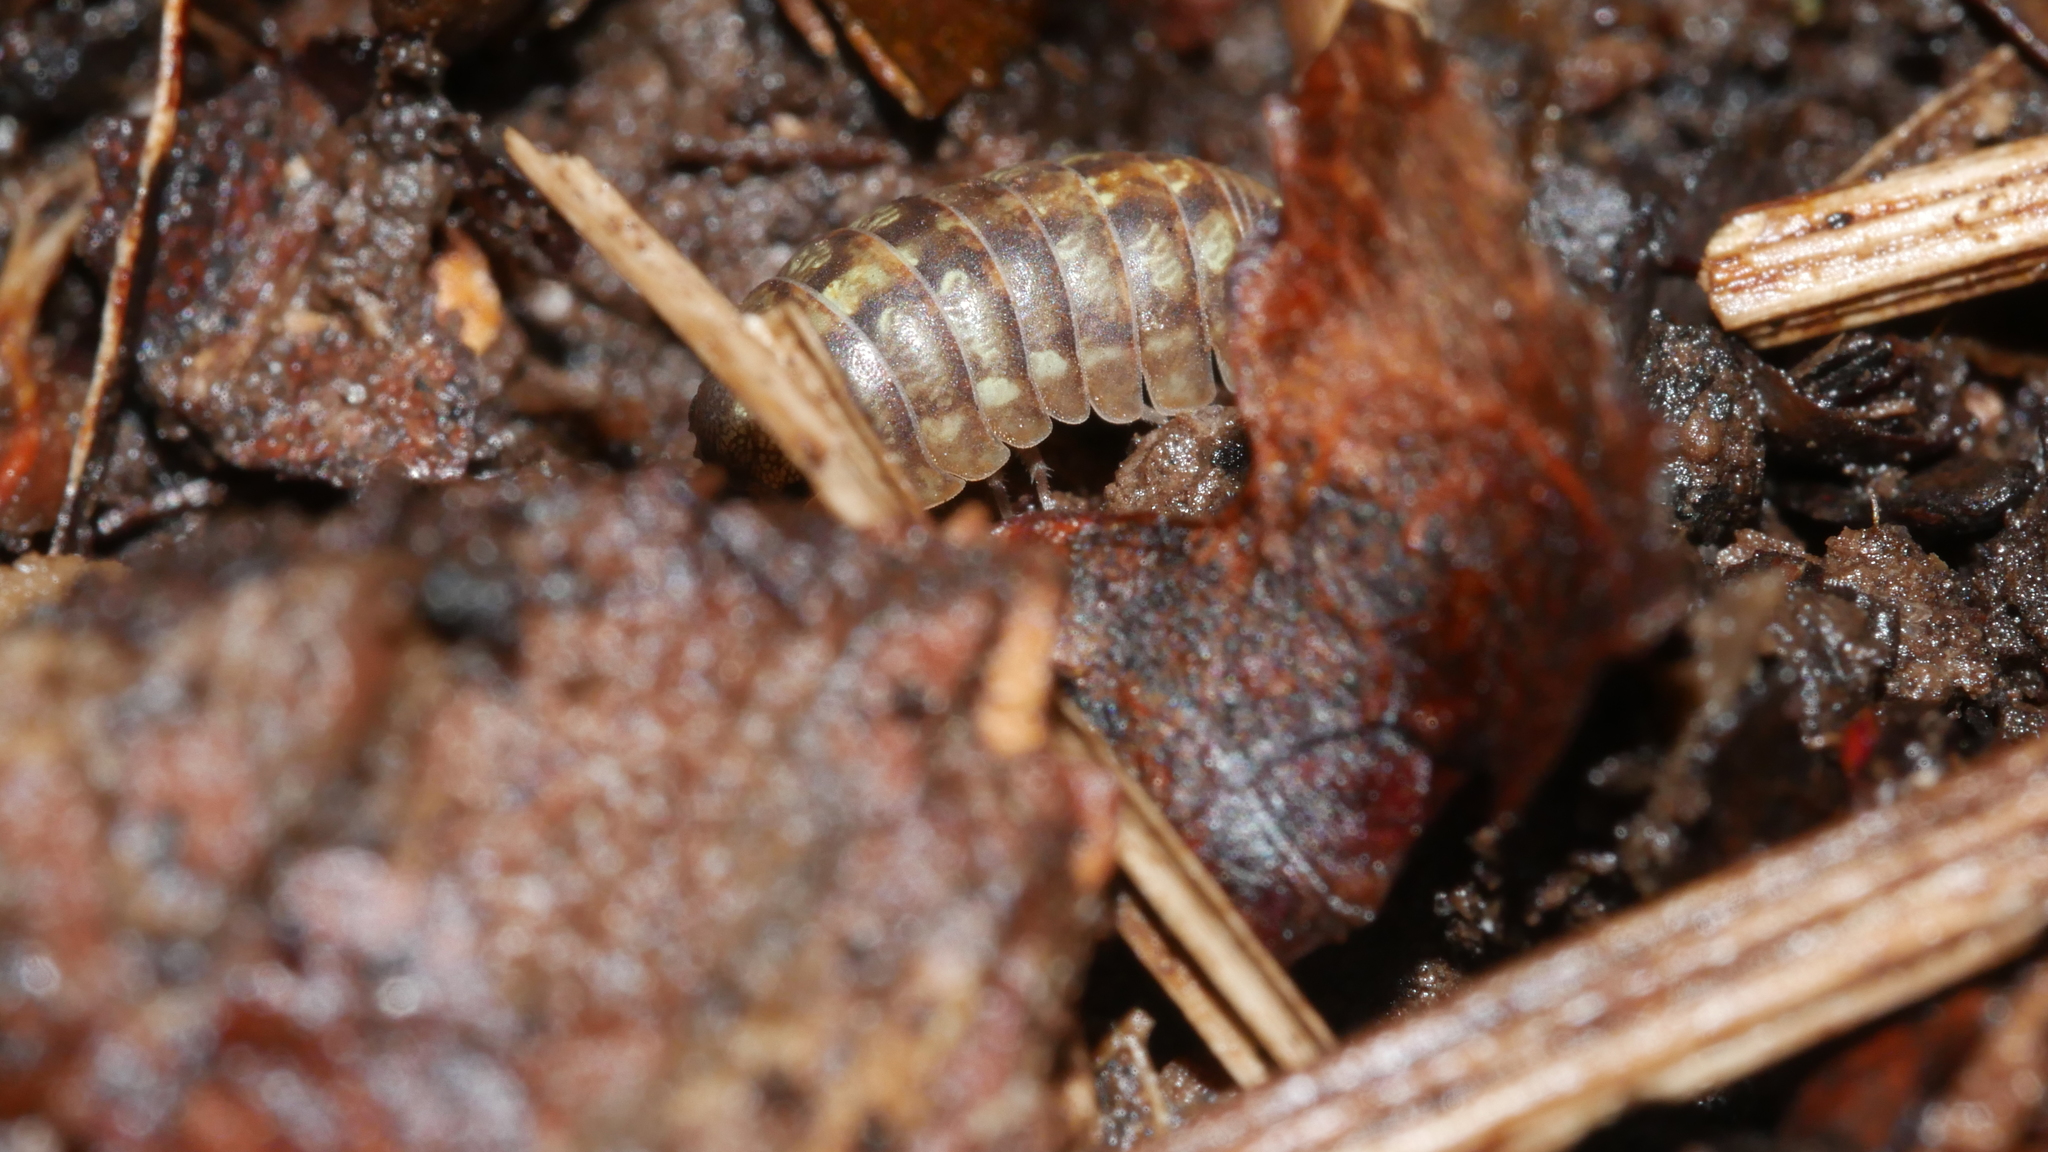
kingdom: Animalia
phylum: Arthropoda
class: Malacostraca
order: Isopoda
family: Armadillidiidae
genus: Armadillidium
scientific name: Armadillidium vulgare
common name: Common pill woodlouse
